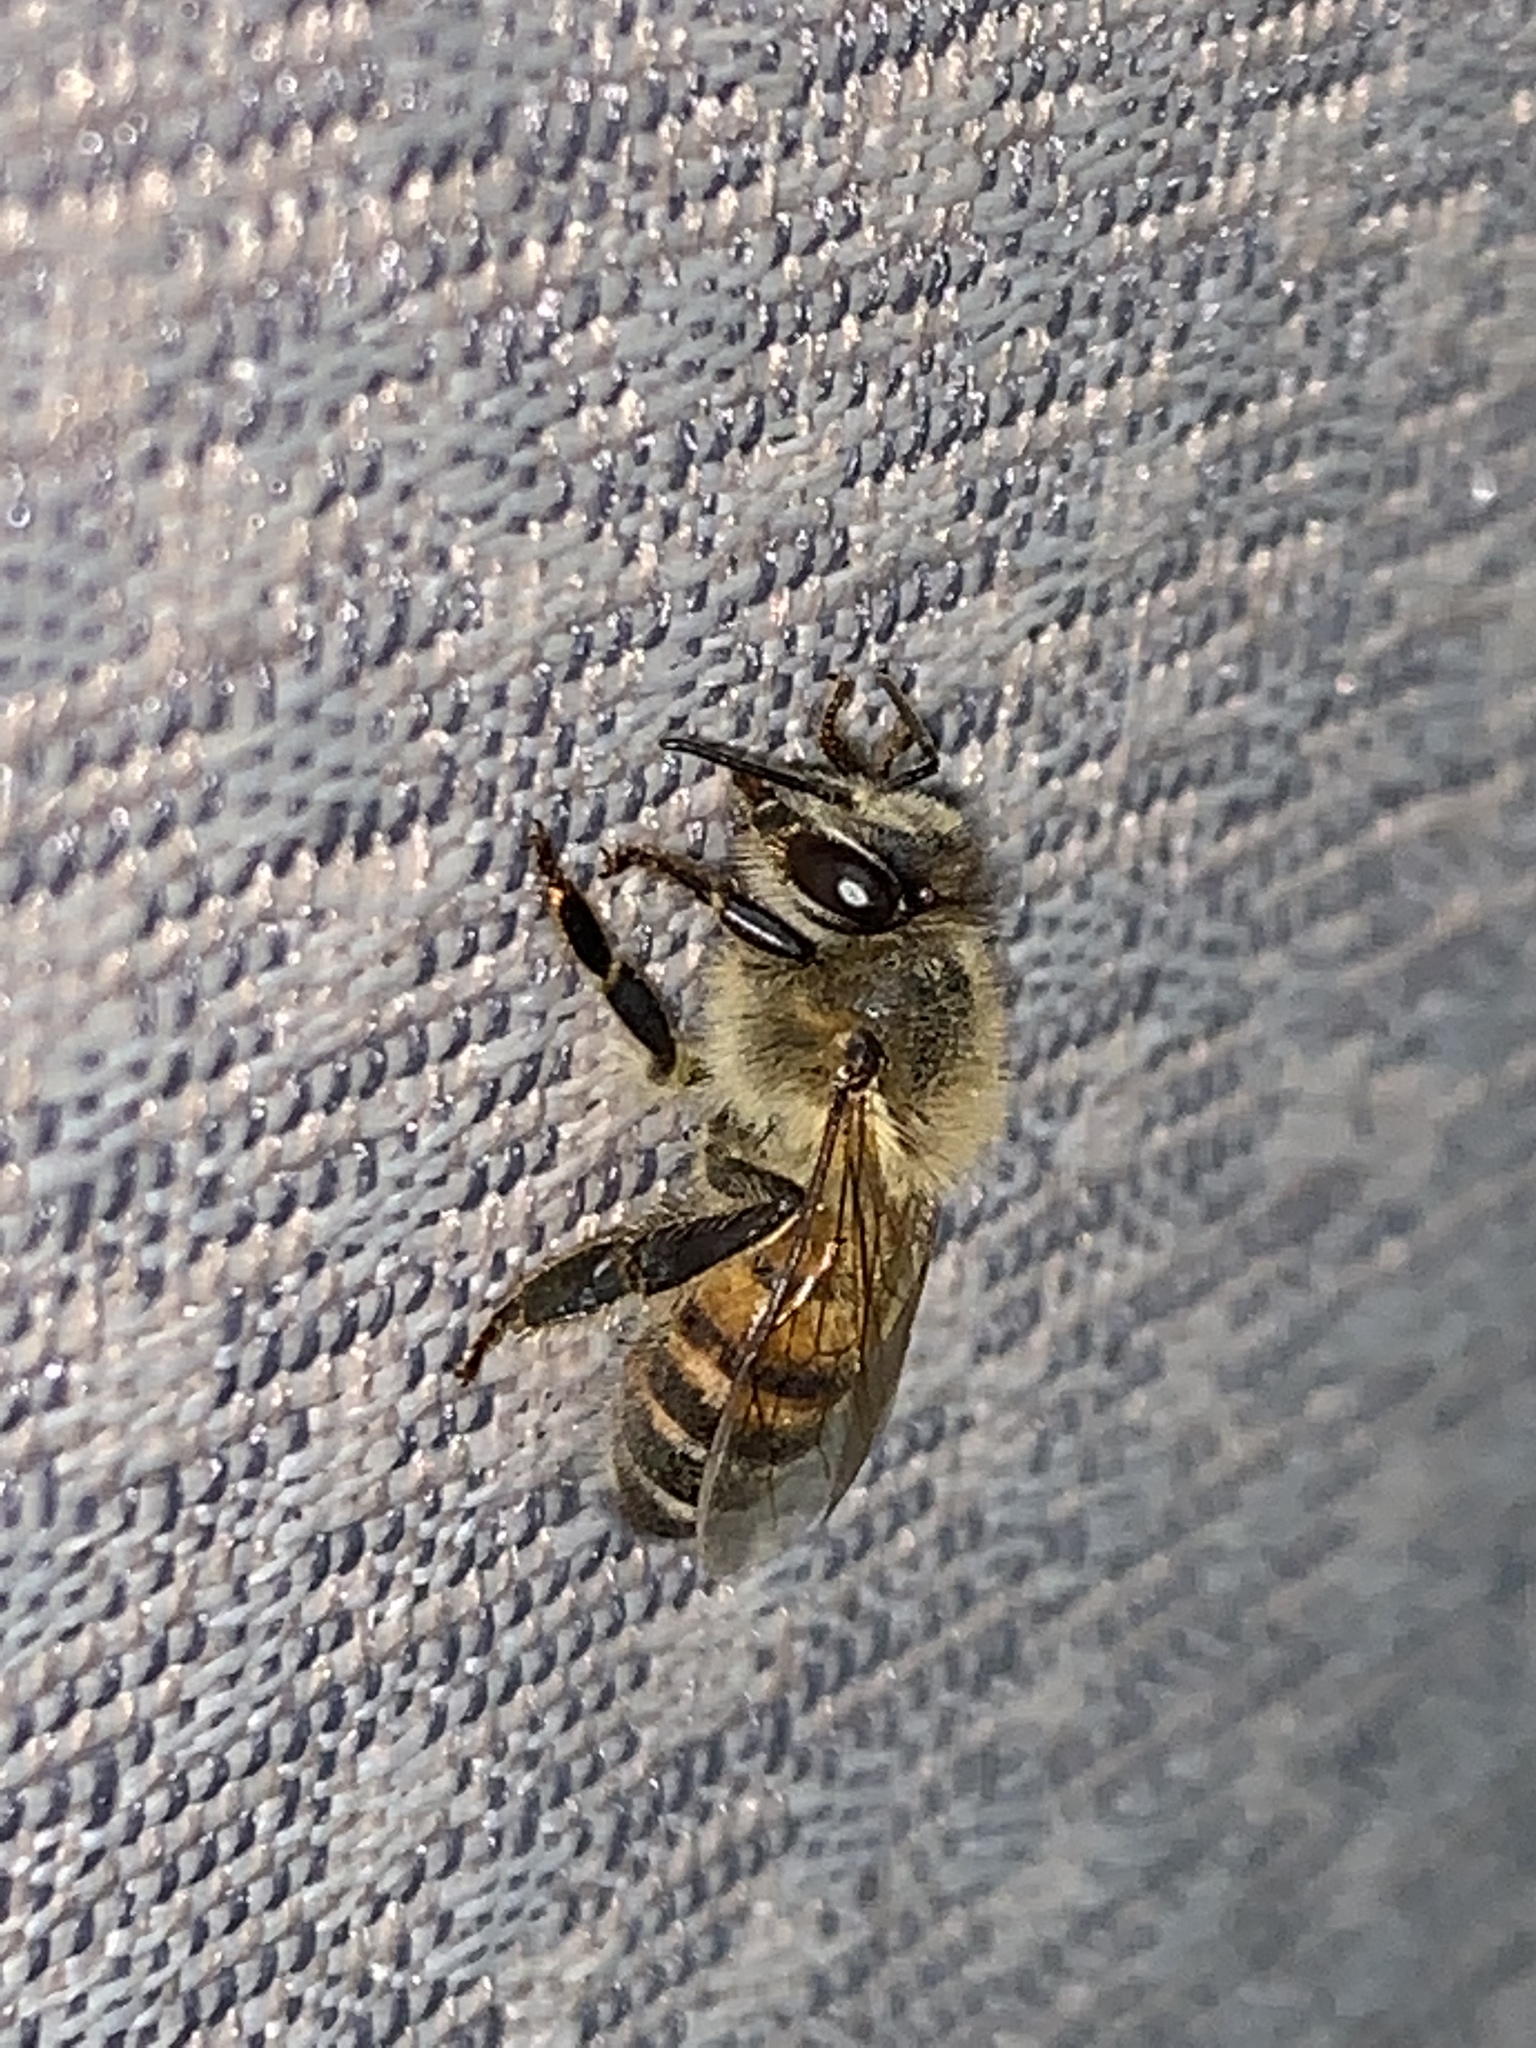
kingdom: Animalia
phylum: Arthropoda
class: Insecta
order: Hymenoptera
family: Apidae
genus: Apis
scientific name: Apis mellifera
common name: Honey bee
